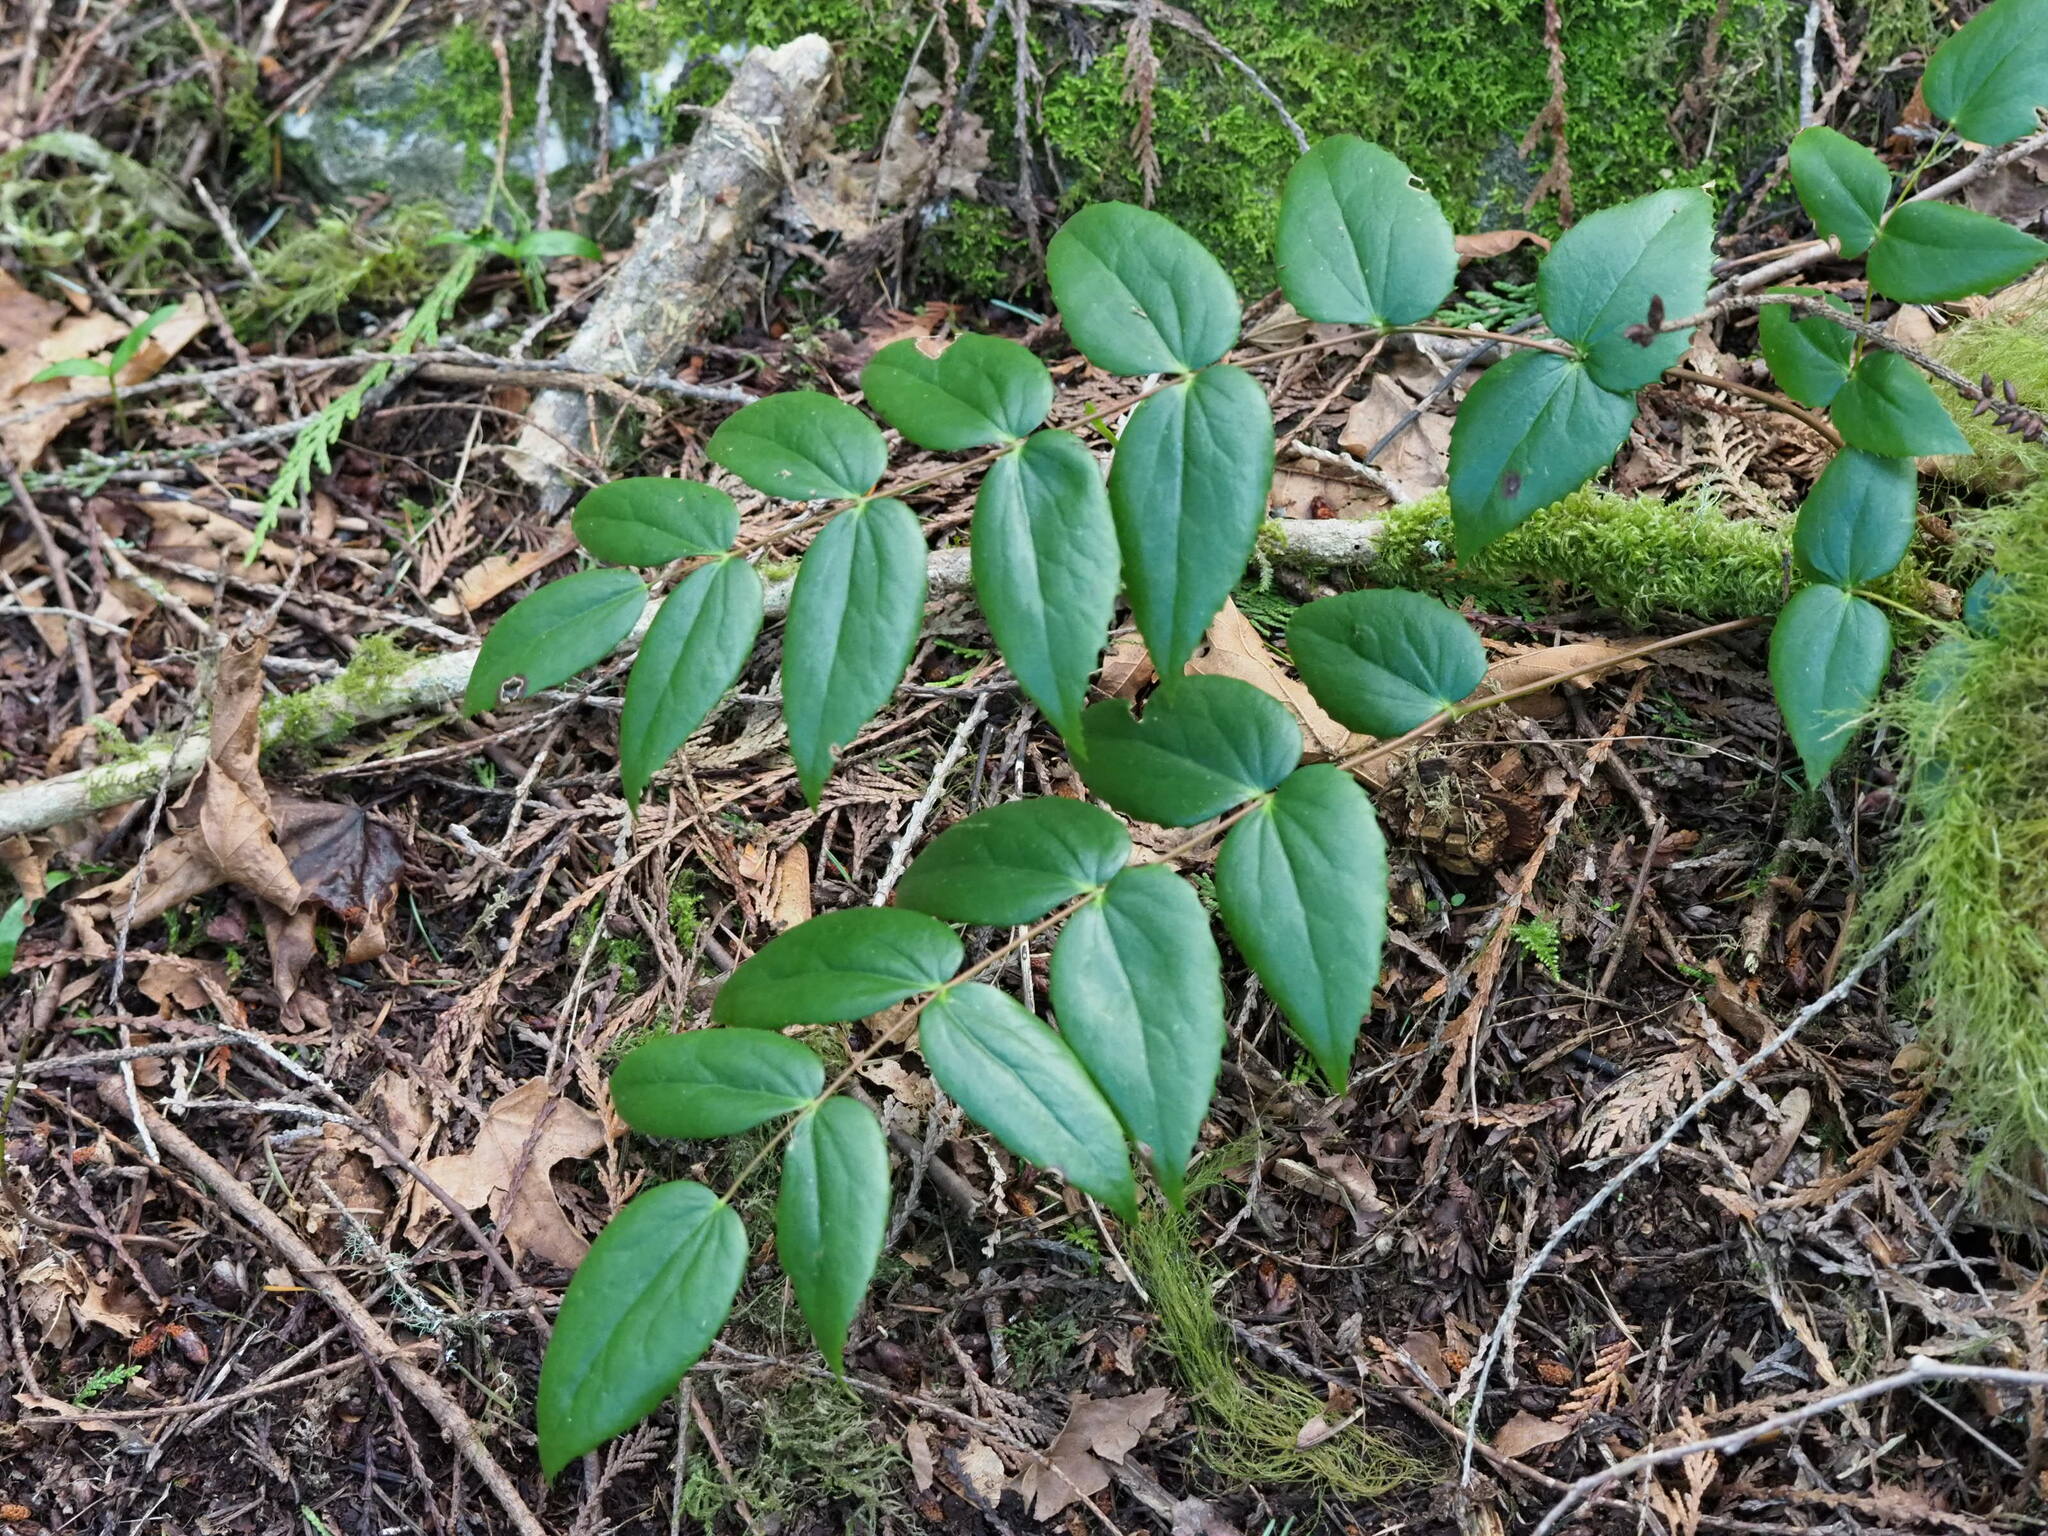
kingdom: Plantae
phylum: Tracheophyta
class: Magnoliopsida
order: Ranunculales
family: Berberidaceae
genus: Mahonia
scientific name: Mahonia nervosa
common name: Cascade oregon-grape
